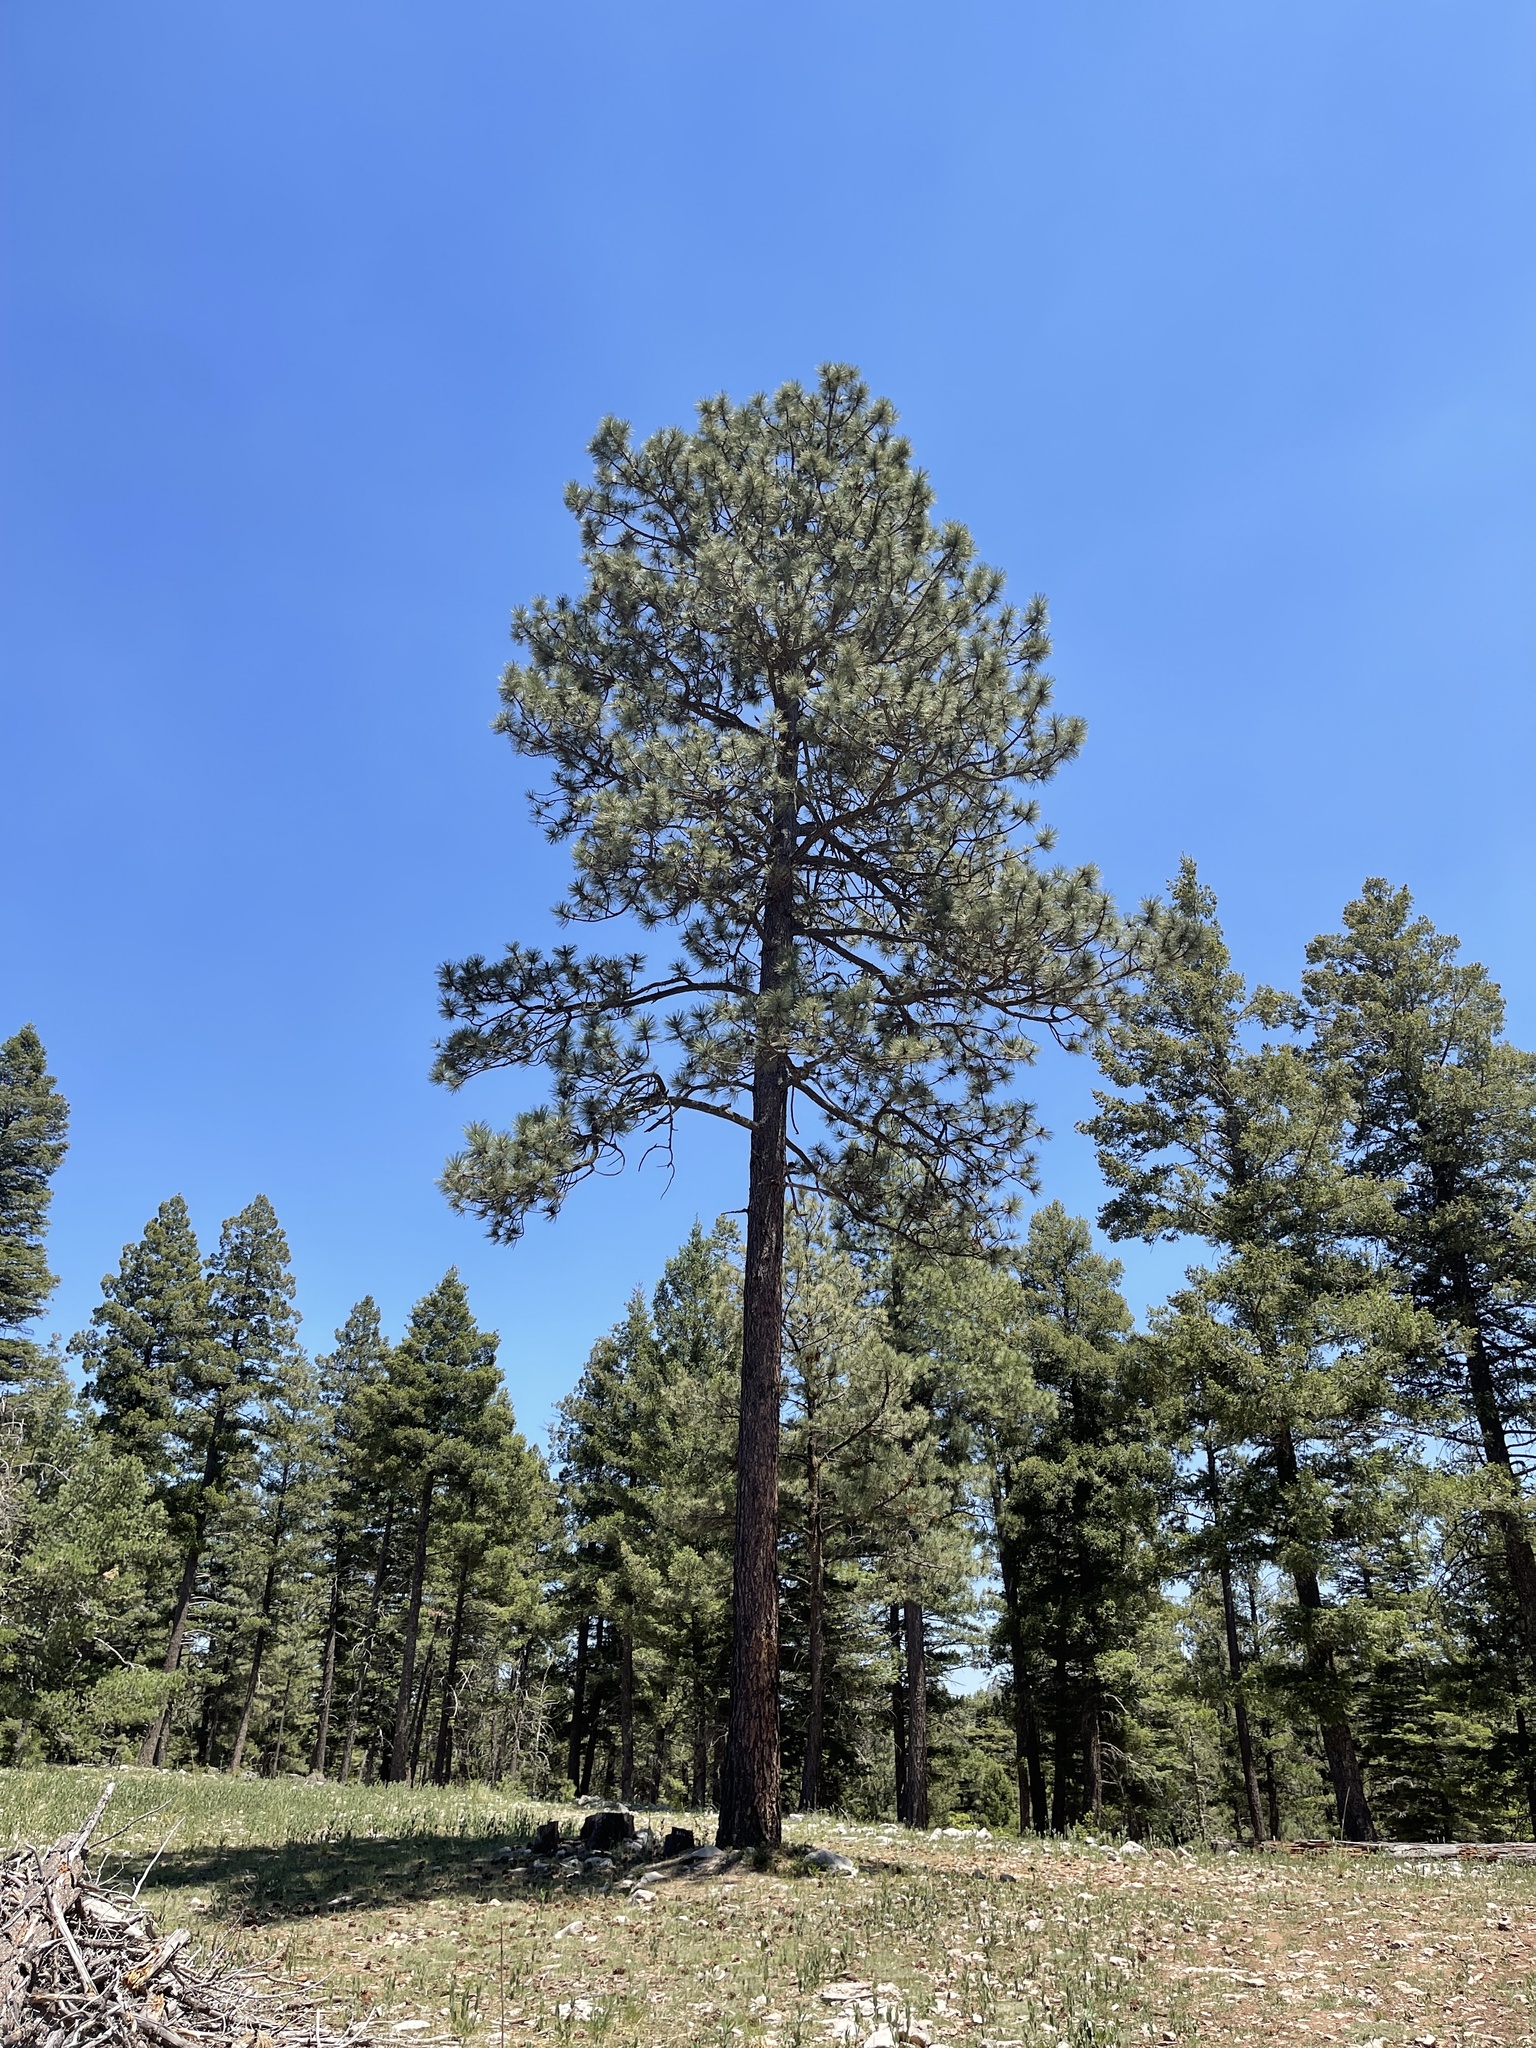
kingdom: Plantae
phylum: Tracheophyta
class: Pinopsida
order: Pinales
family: Pinaceae
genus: Pinus
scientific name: Pinus ponderosa
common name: Western yellow-pine
